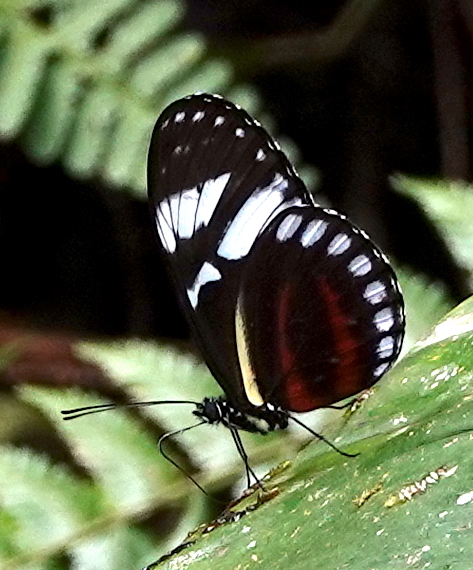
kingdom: Animalia
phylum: Arthropoda
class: Insecta
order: Lepidoptera
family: Nymphalidae
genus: Heliconius
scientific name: Heliconius cydno
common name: Cydno longwing
